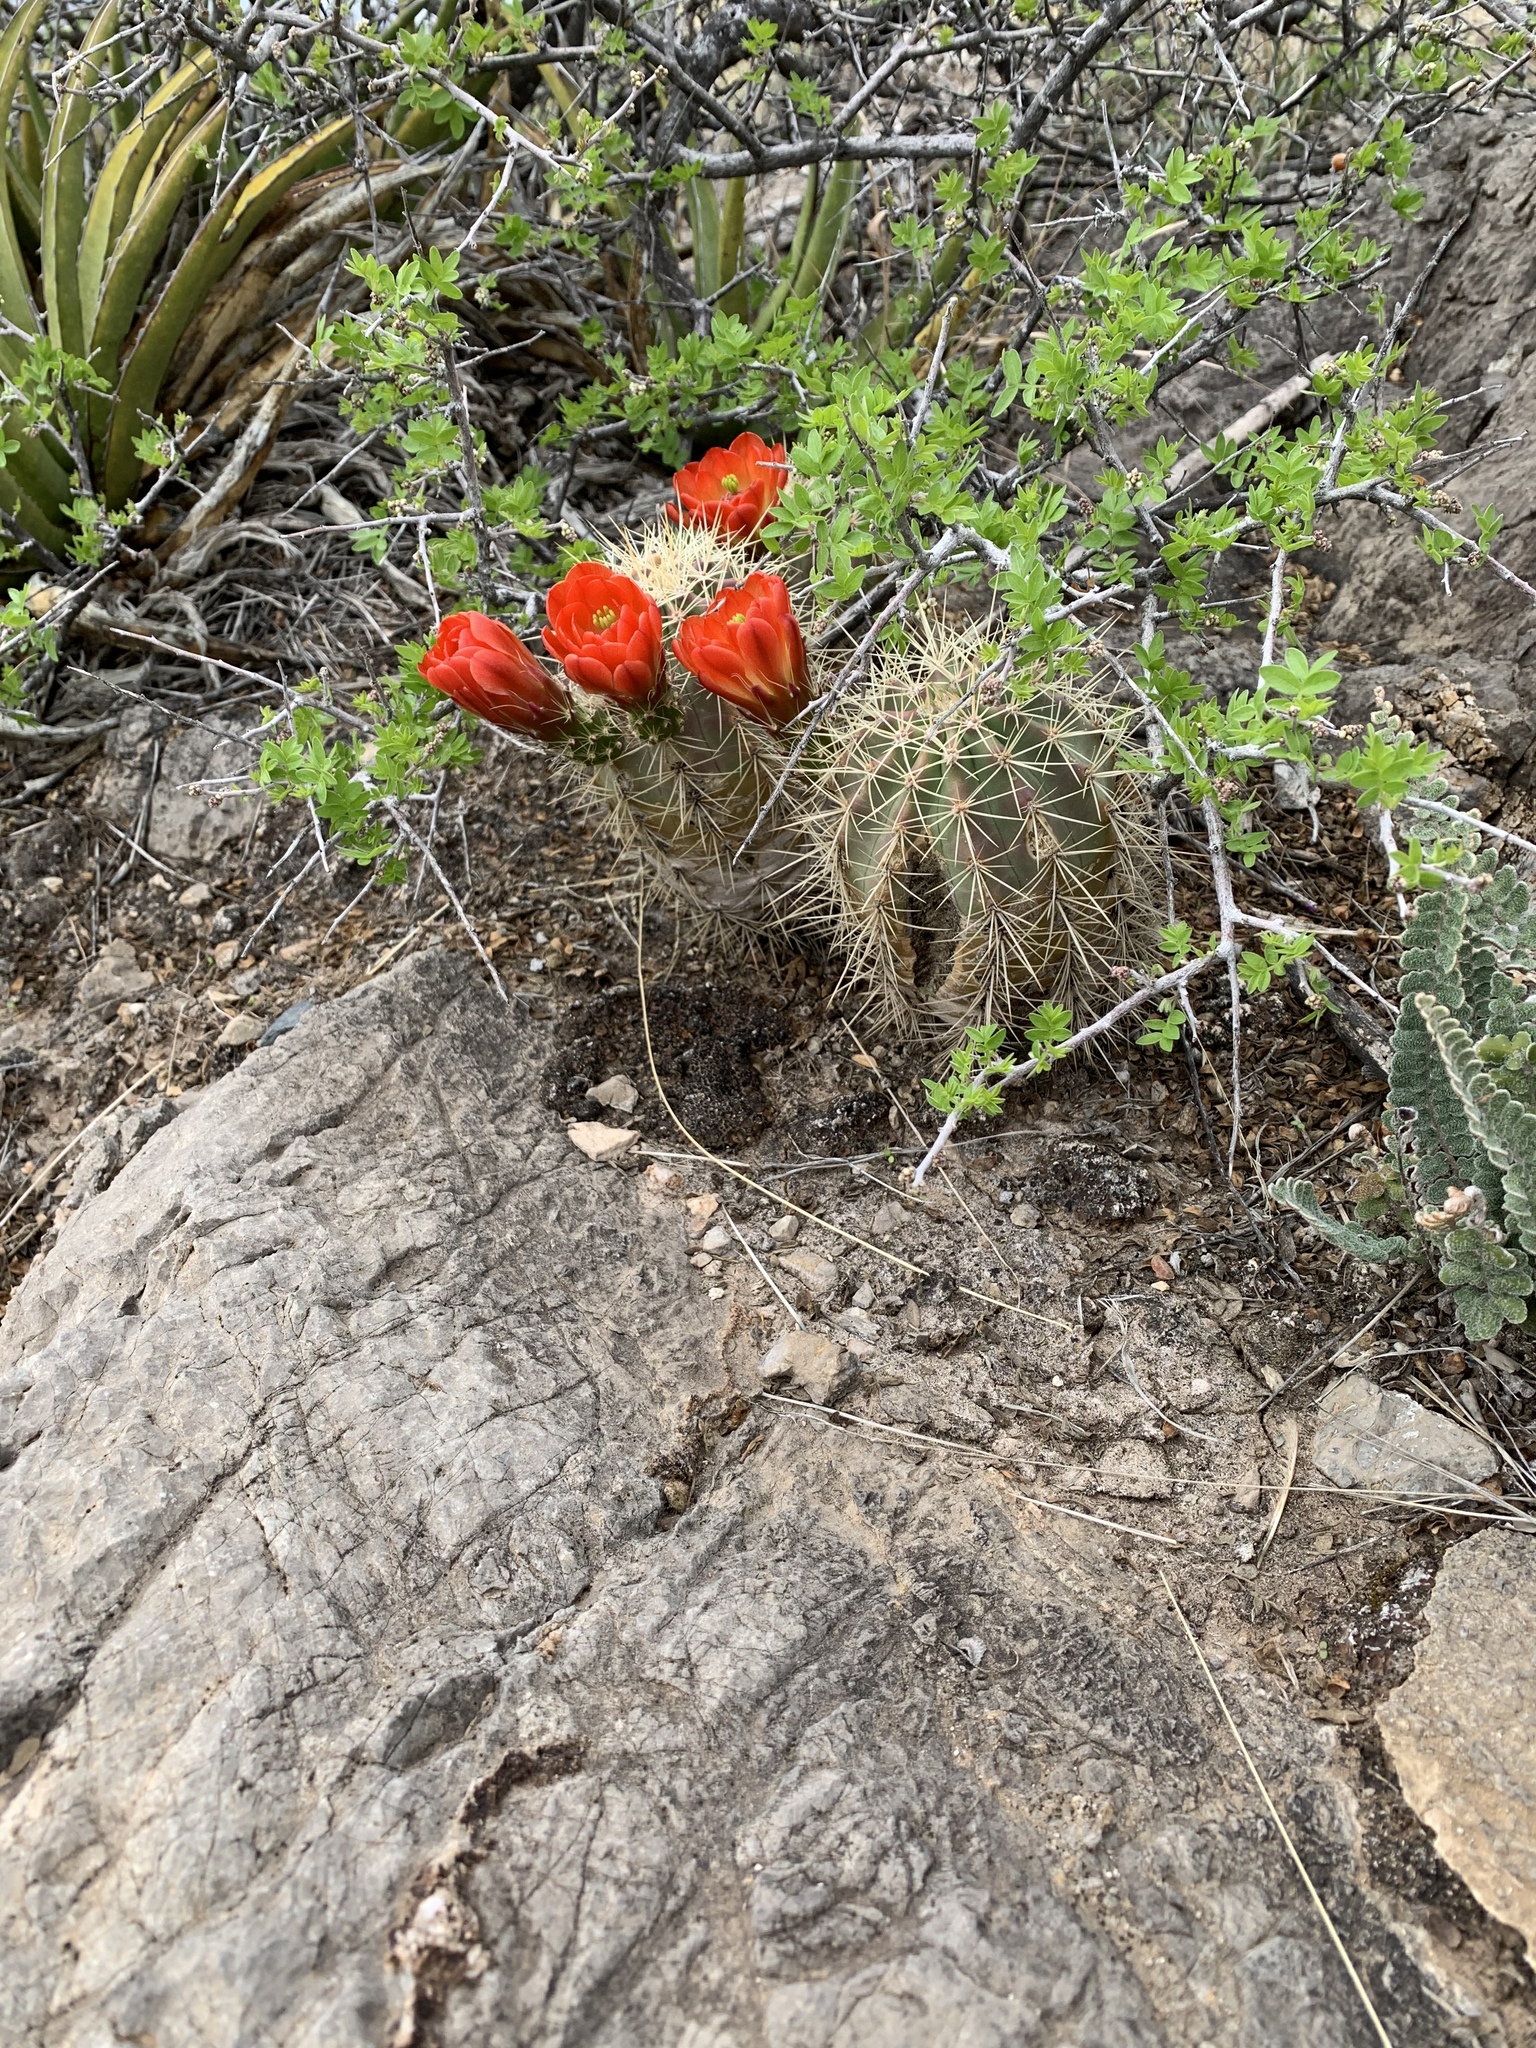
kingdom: Plantae
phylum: Tracheophyta
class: Magnoliopsida
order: Caryophyllales
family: Cactaceae
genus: Echinocereus
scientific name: Echinocereus coccineus
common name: Scarlet hedgehog cactus
